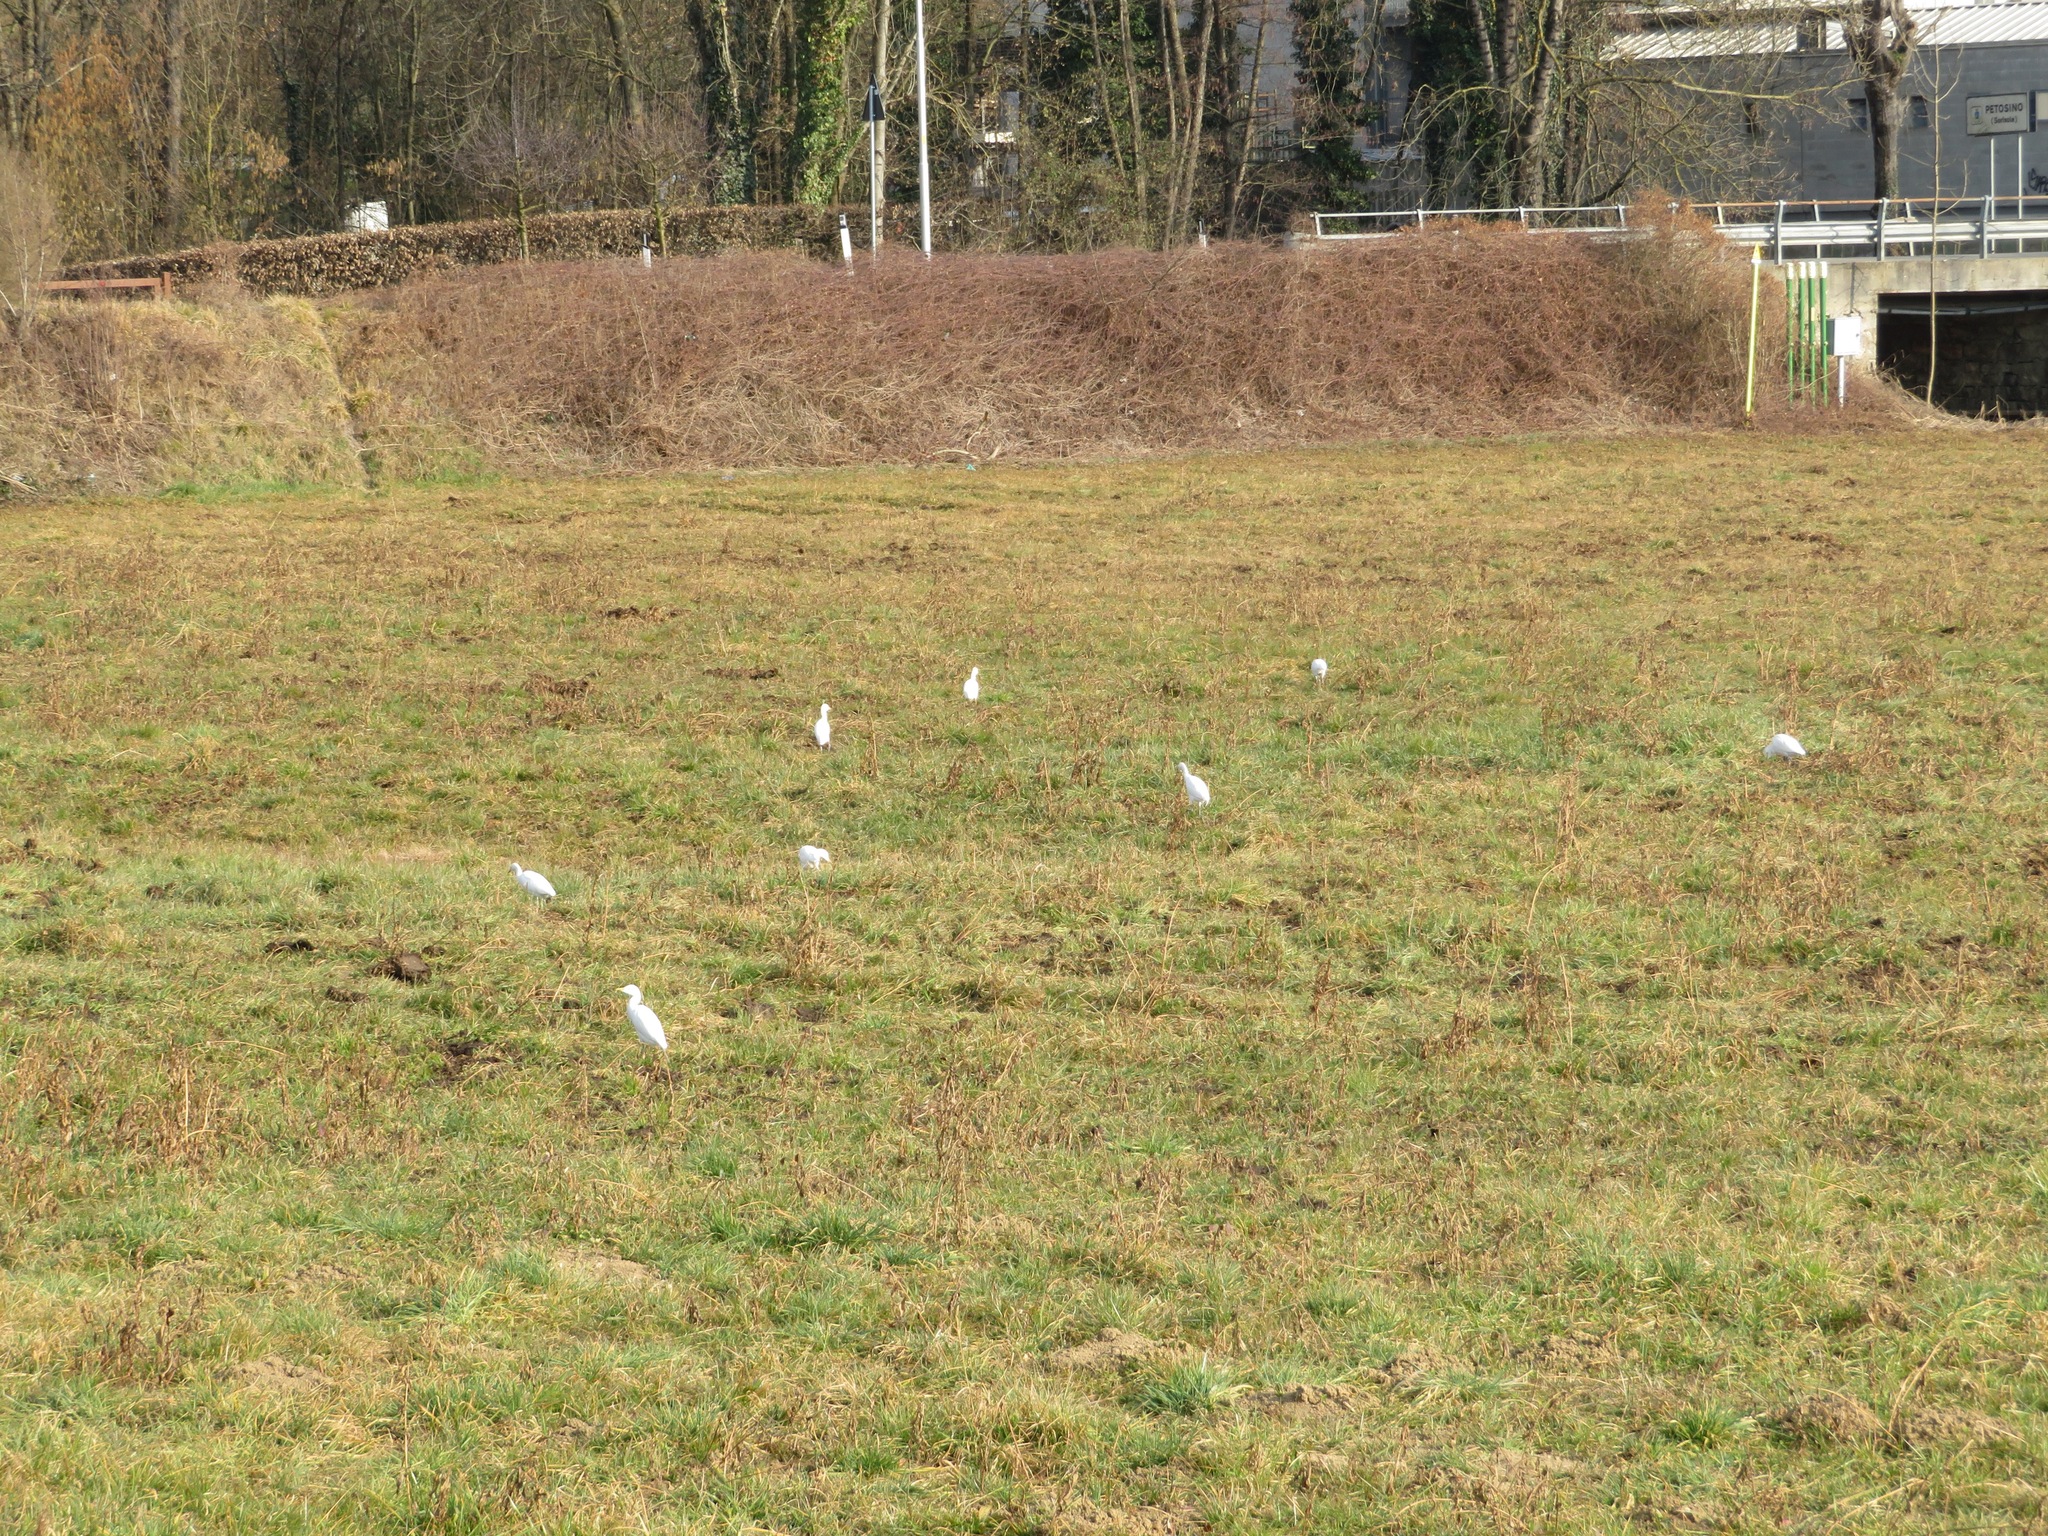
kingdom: Animalia
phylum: Chordata
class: Aves
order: Pelecaniformes
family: Ardeidae
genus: Bubulcus
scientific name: Bubulcus ibis
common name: Cattle egret
